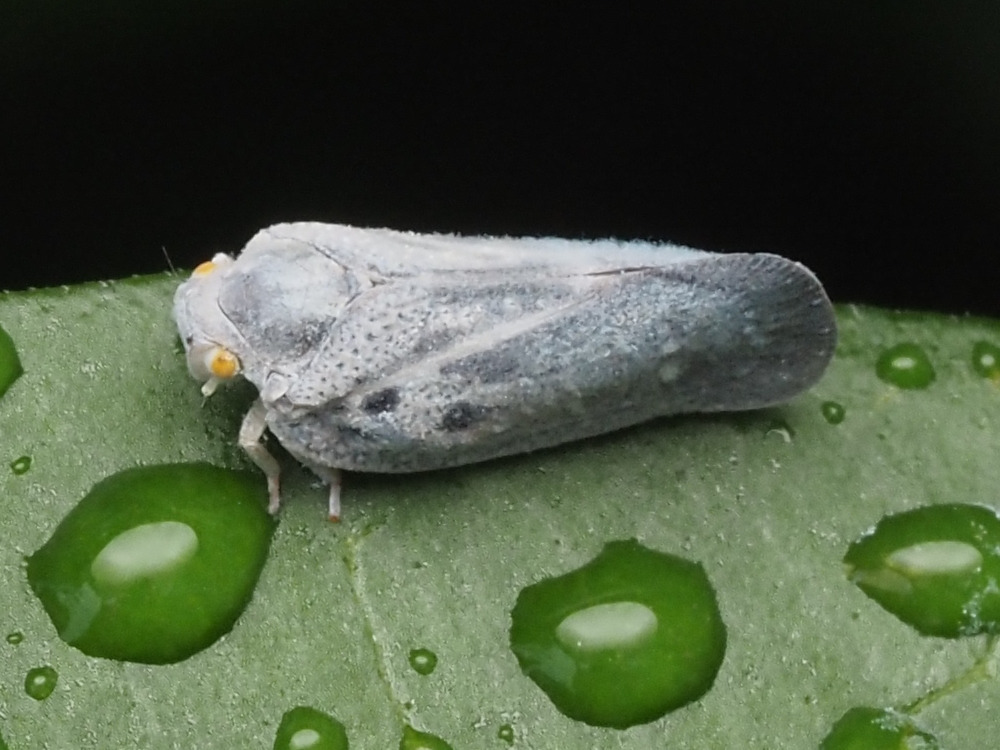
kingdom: Animalia
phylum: Arthropoda
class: Insecta
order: Hemiptera
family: Flatidae
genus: Metcalfa
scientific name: Metcalfa pruinosa
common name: Citrus flatid planthopper
